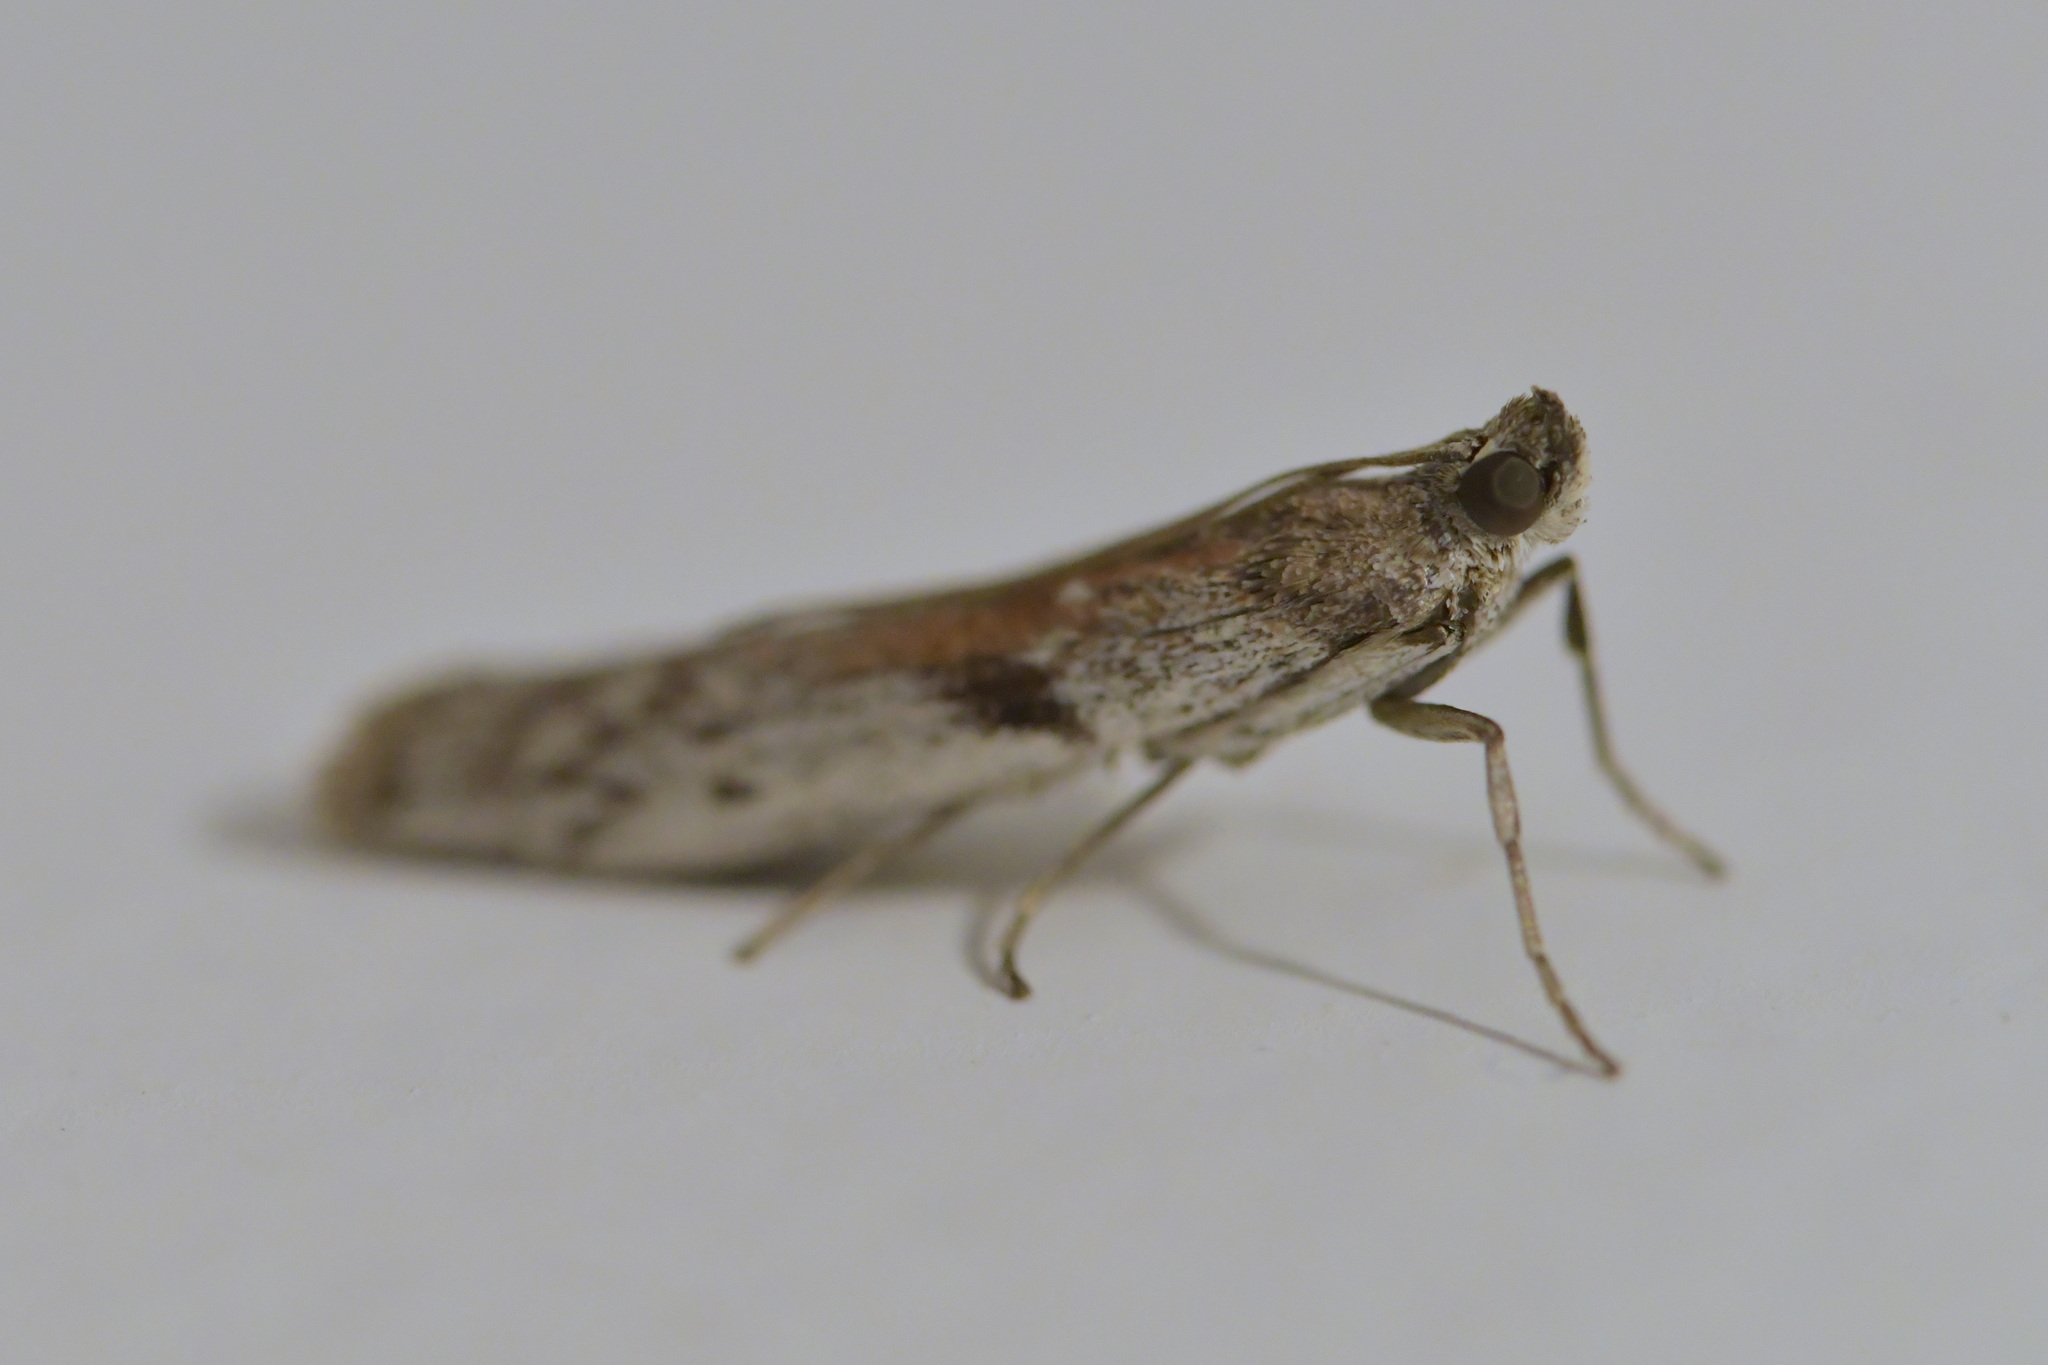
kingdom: Animalia
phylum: Arthropoda
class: Insecta
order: Lepidoptera
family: Pyralidae
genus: Patagoniodes
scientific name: Patagoniodes farinaria
